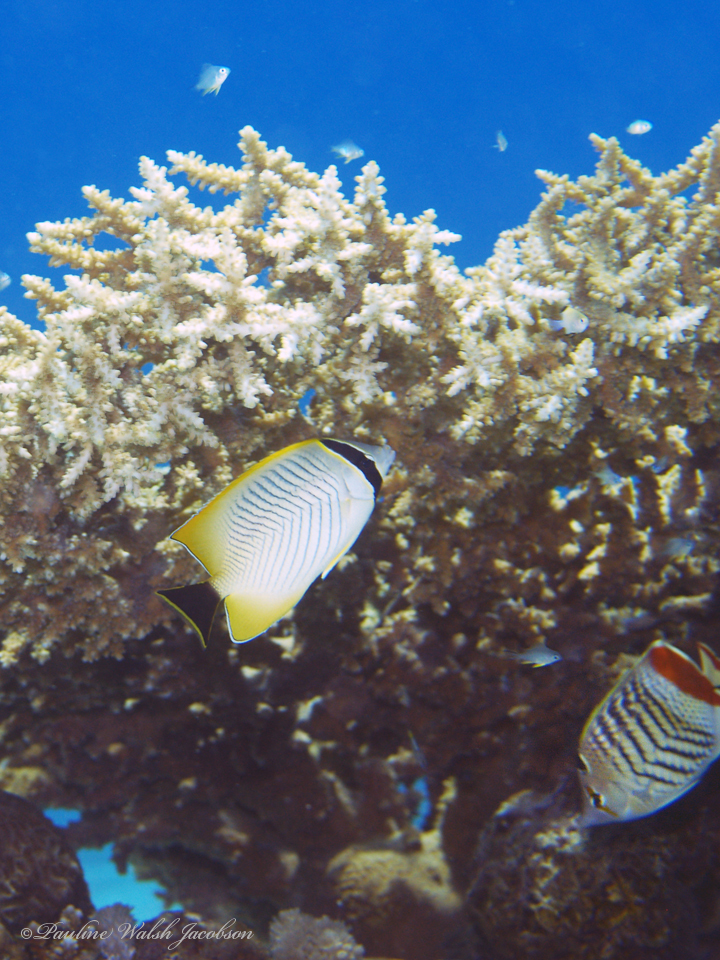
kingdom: Animalia
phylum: Chordata
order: Perciformes
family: Chaetodontidae
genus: Chaetodon
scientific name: Chaetodon paucifasciatus
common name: Crown butterflyfish
